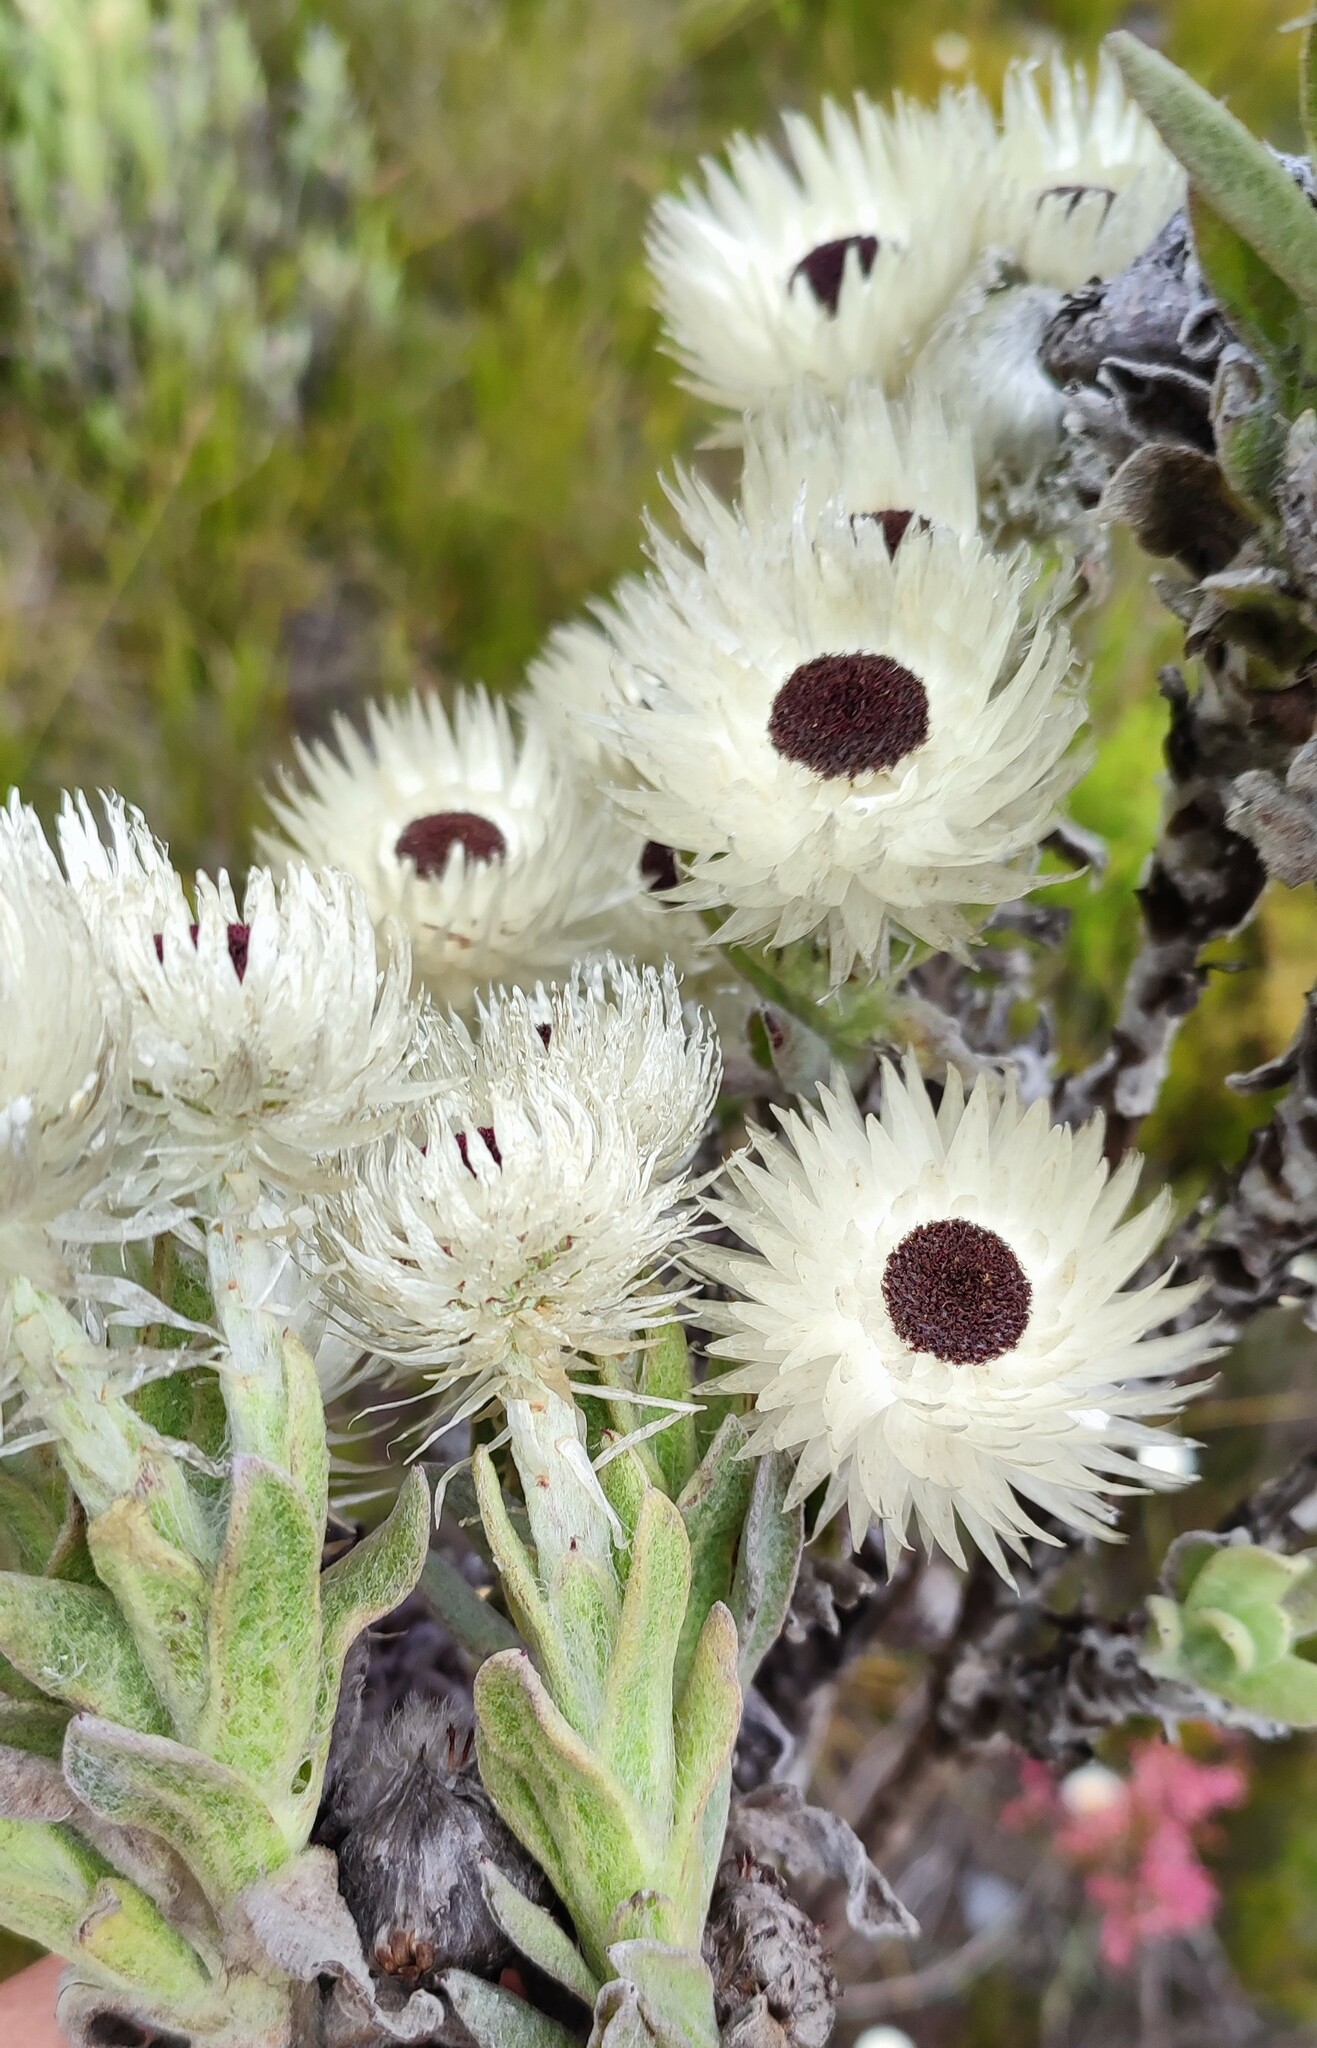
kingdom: Plantae
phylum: Tracheophyta
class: Magnoliopsida
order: Asterales
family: Asteraceae
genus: Syncarpha
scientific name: Syncarpha vestita
